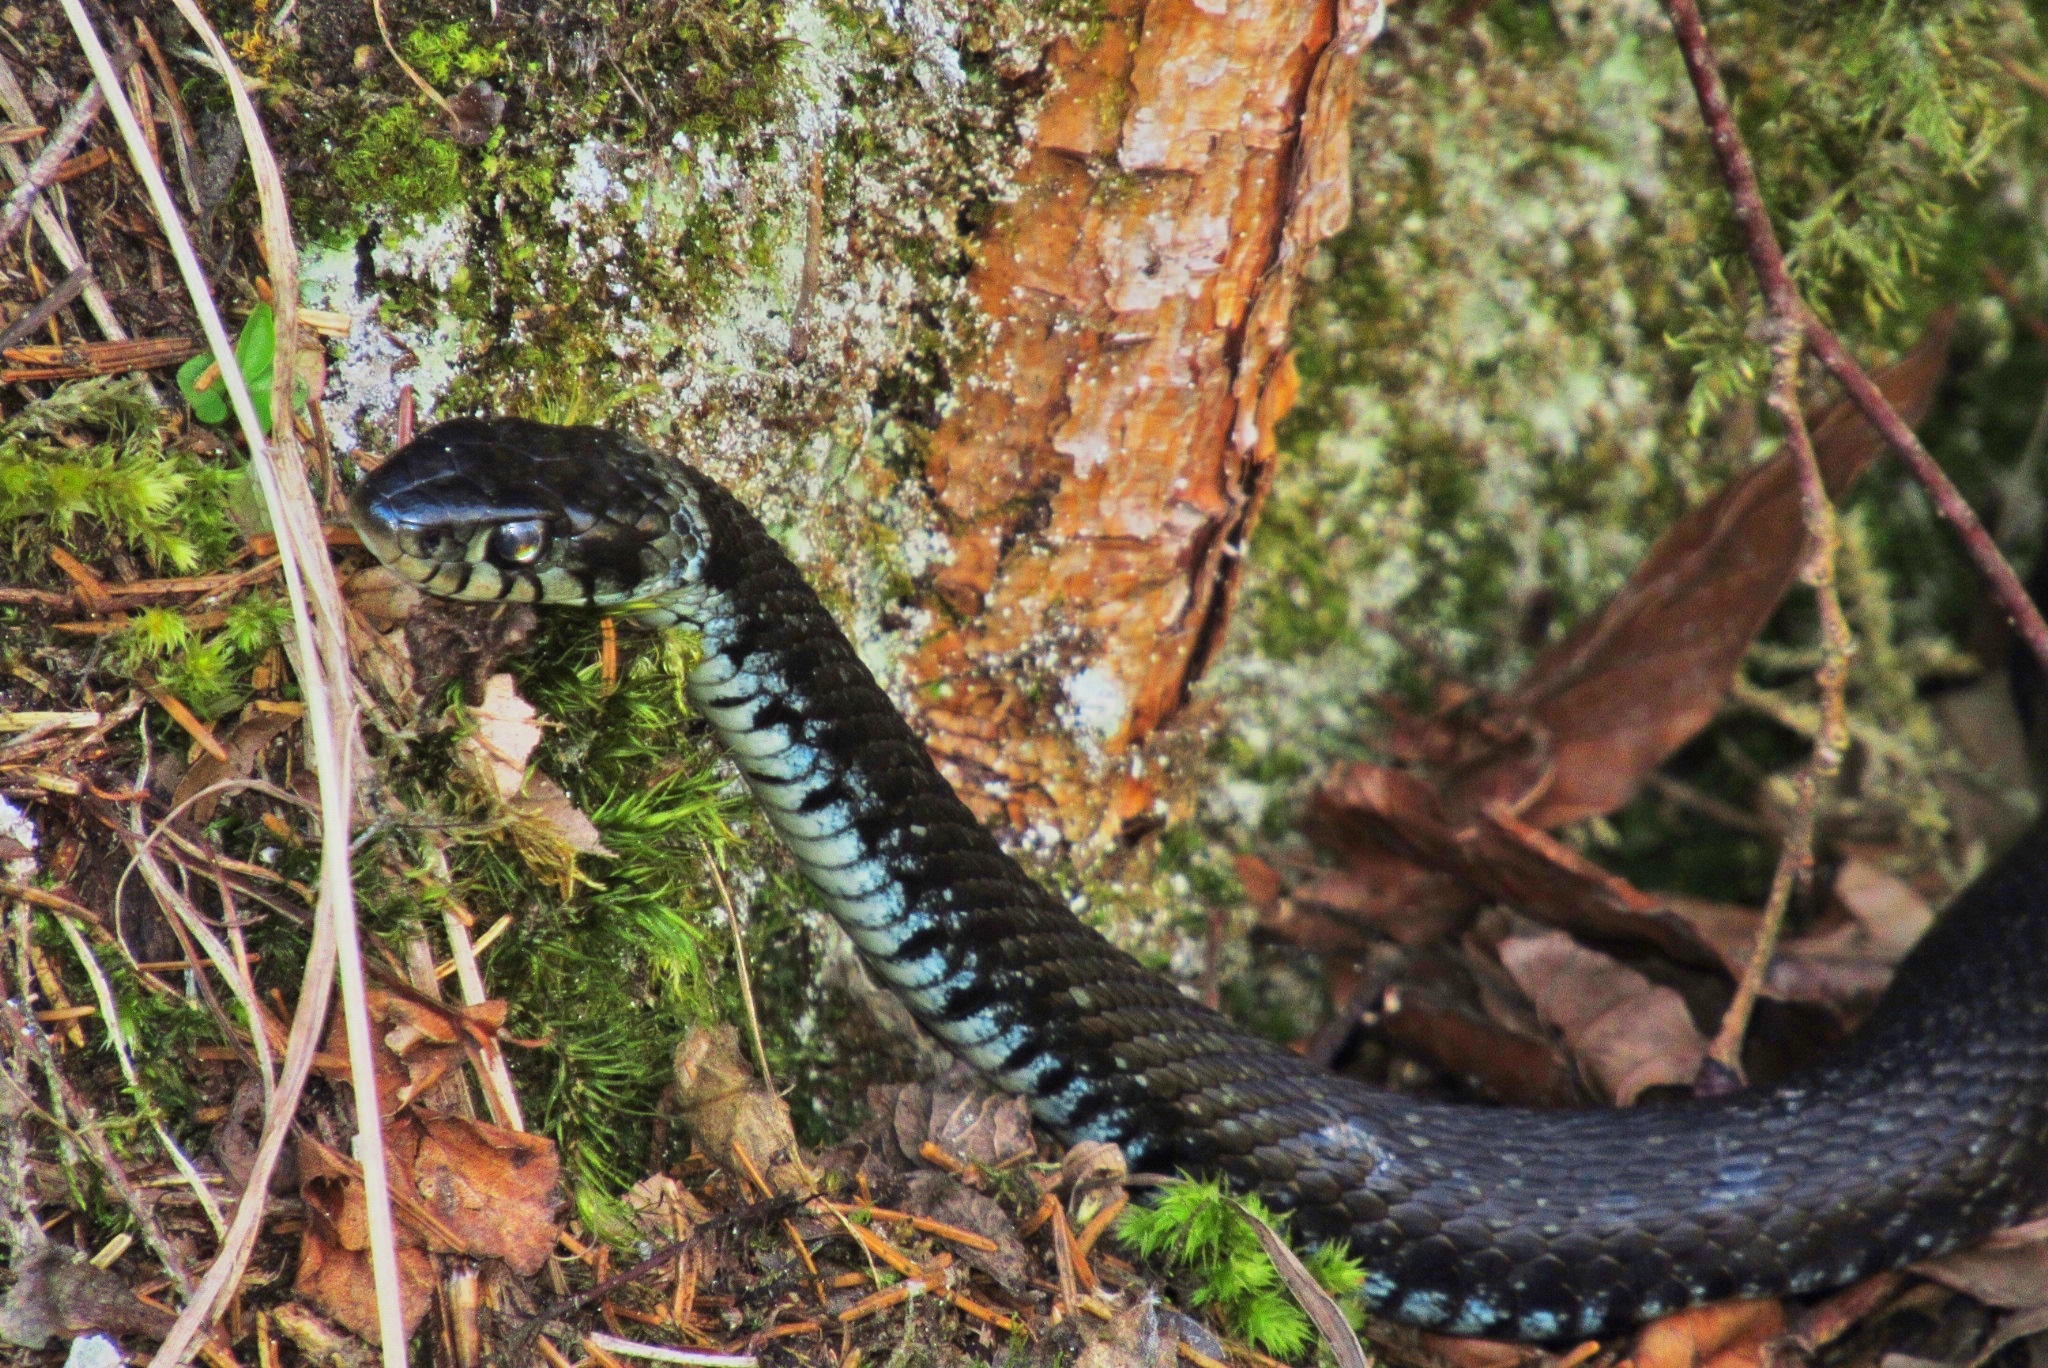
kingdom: Animalia
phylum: Chordata
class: Squamata
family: Colubridae
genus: Natrix
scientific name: Natrix helvetica
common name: Banded grass snake
